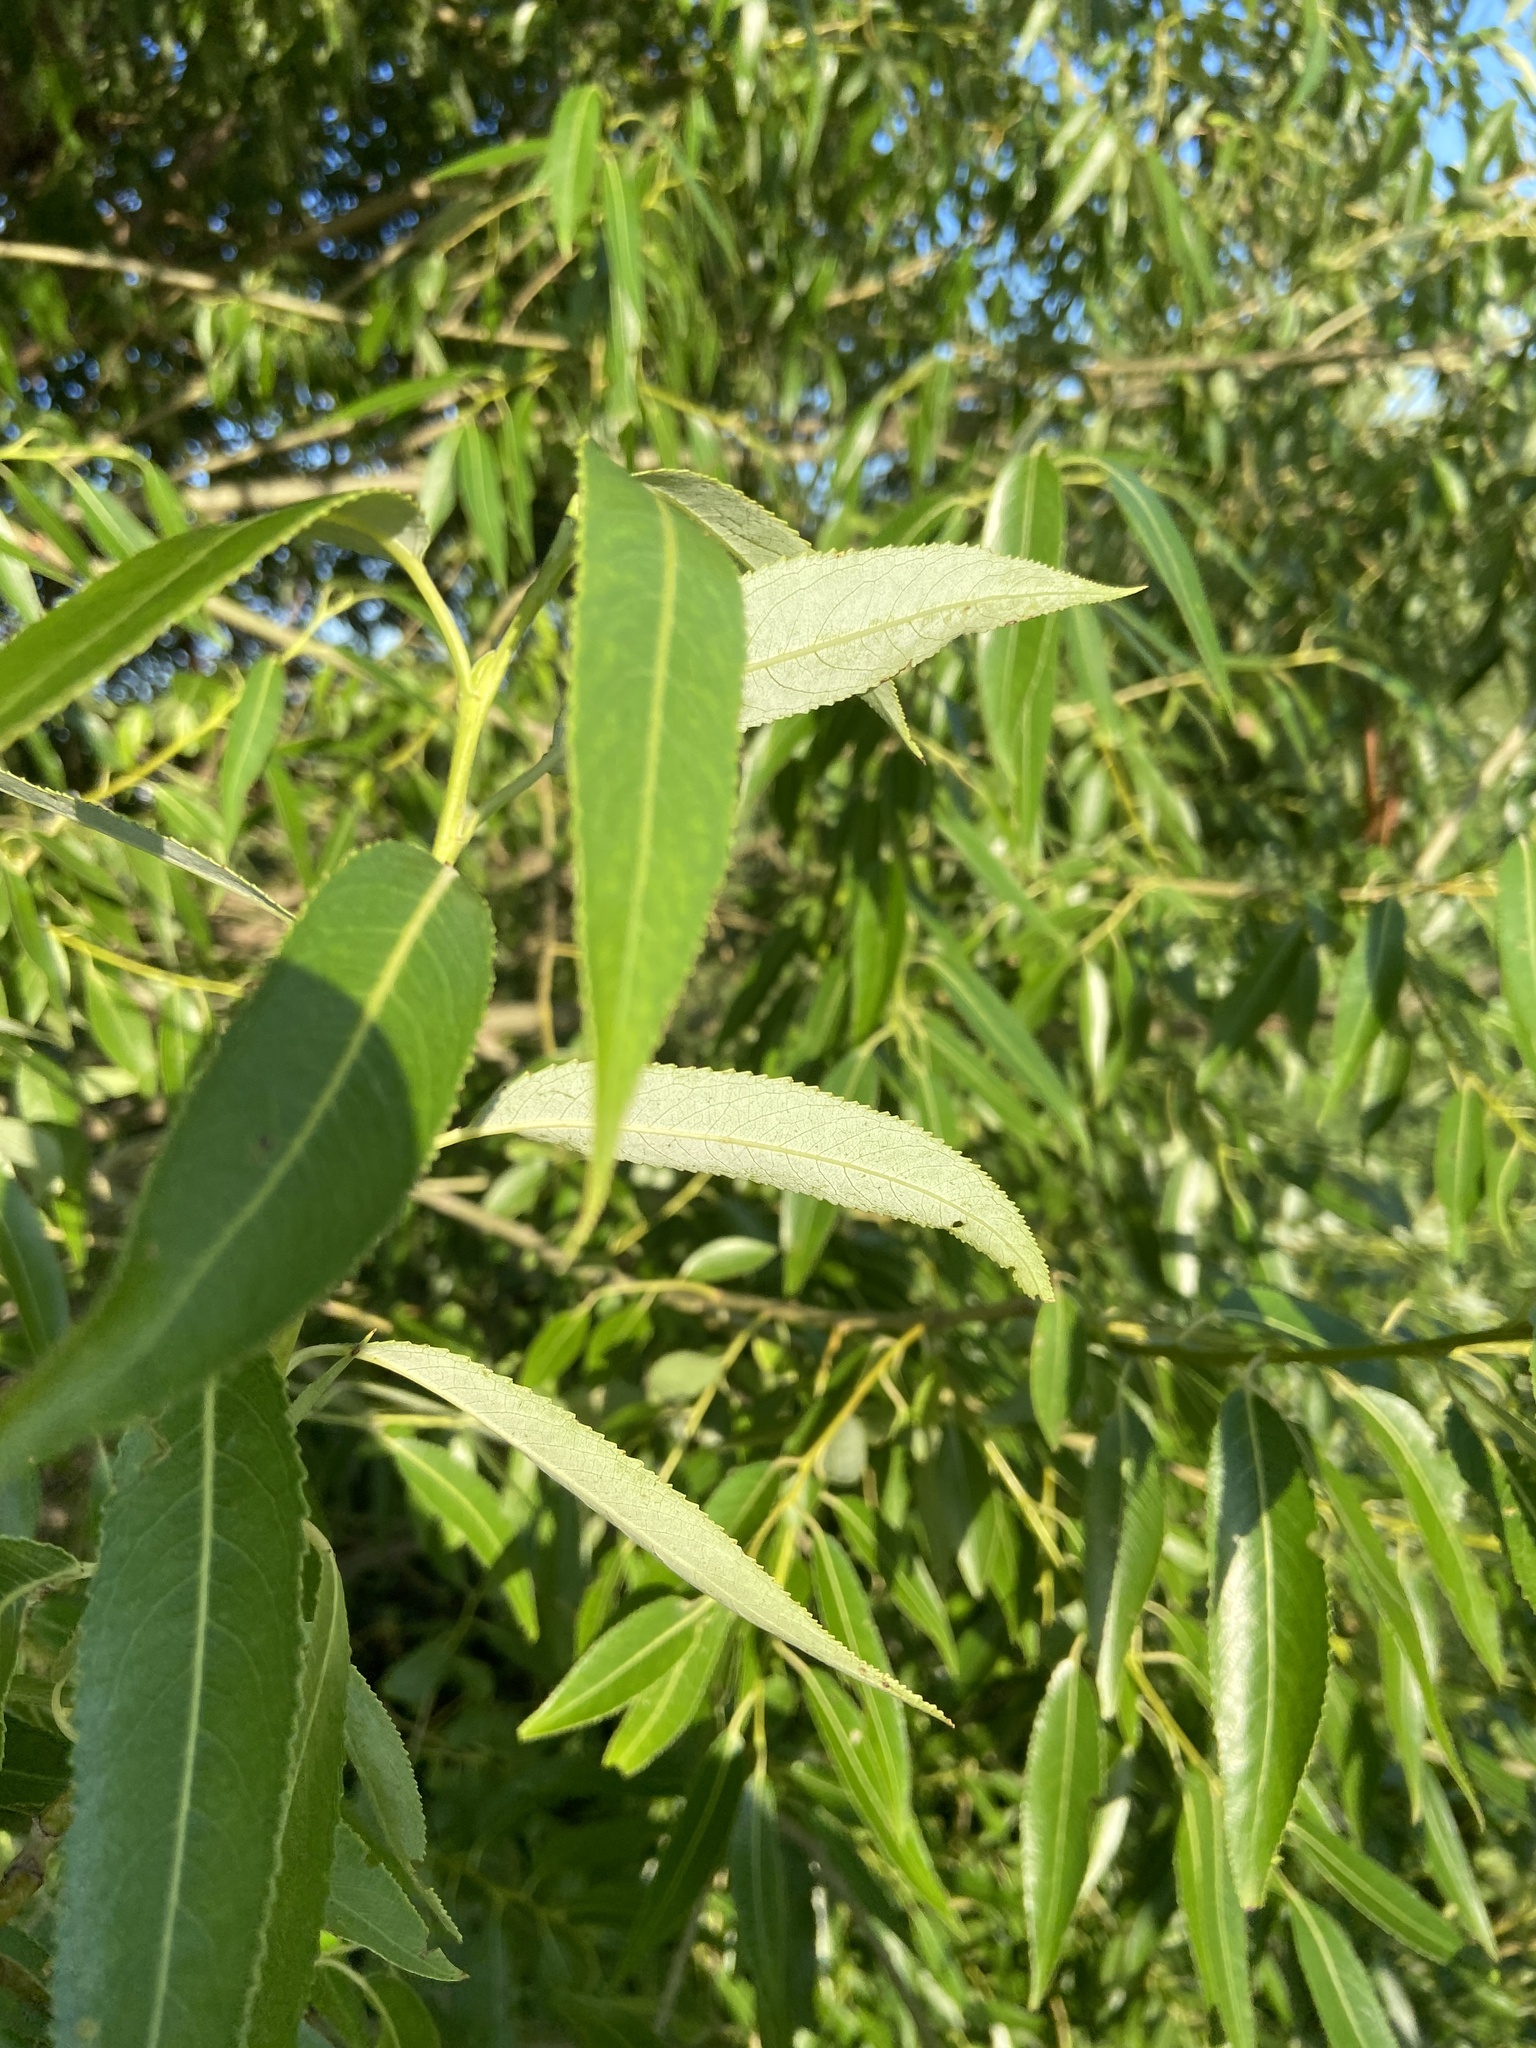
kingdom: Plantae
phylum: Tracheophyta
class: Magnoliopsida
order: Malpighiales
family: Salicaceae
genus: Salix
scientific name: Salix pentandra
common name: Bay willow
